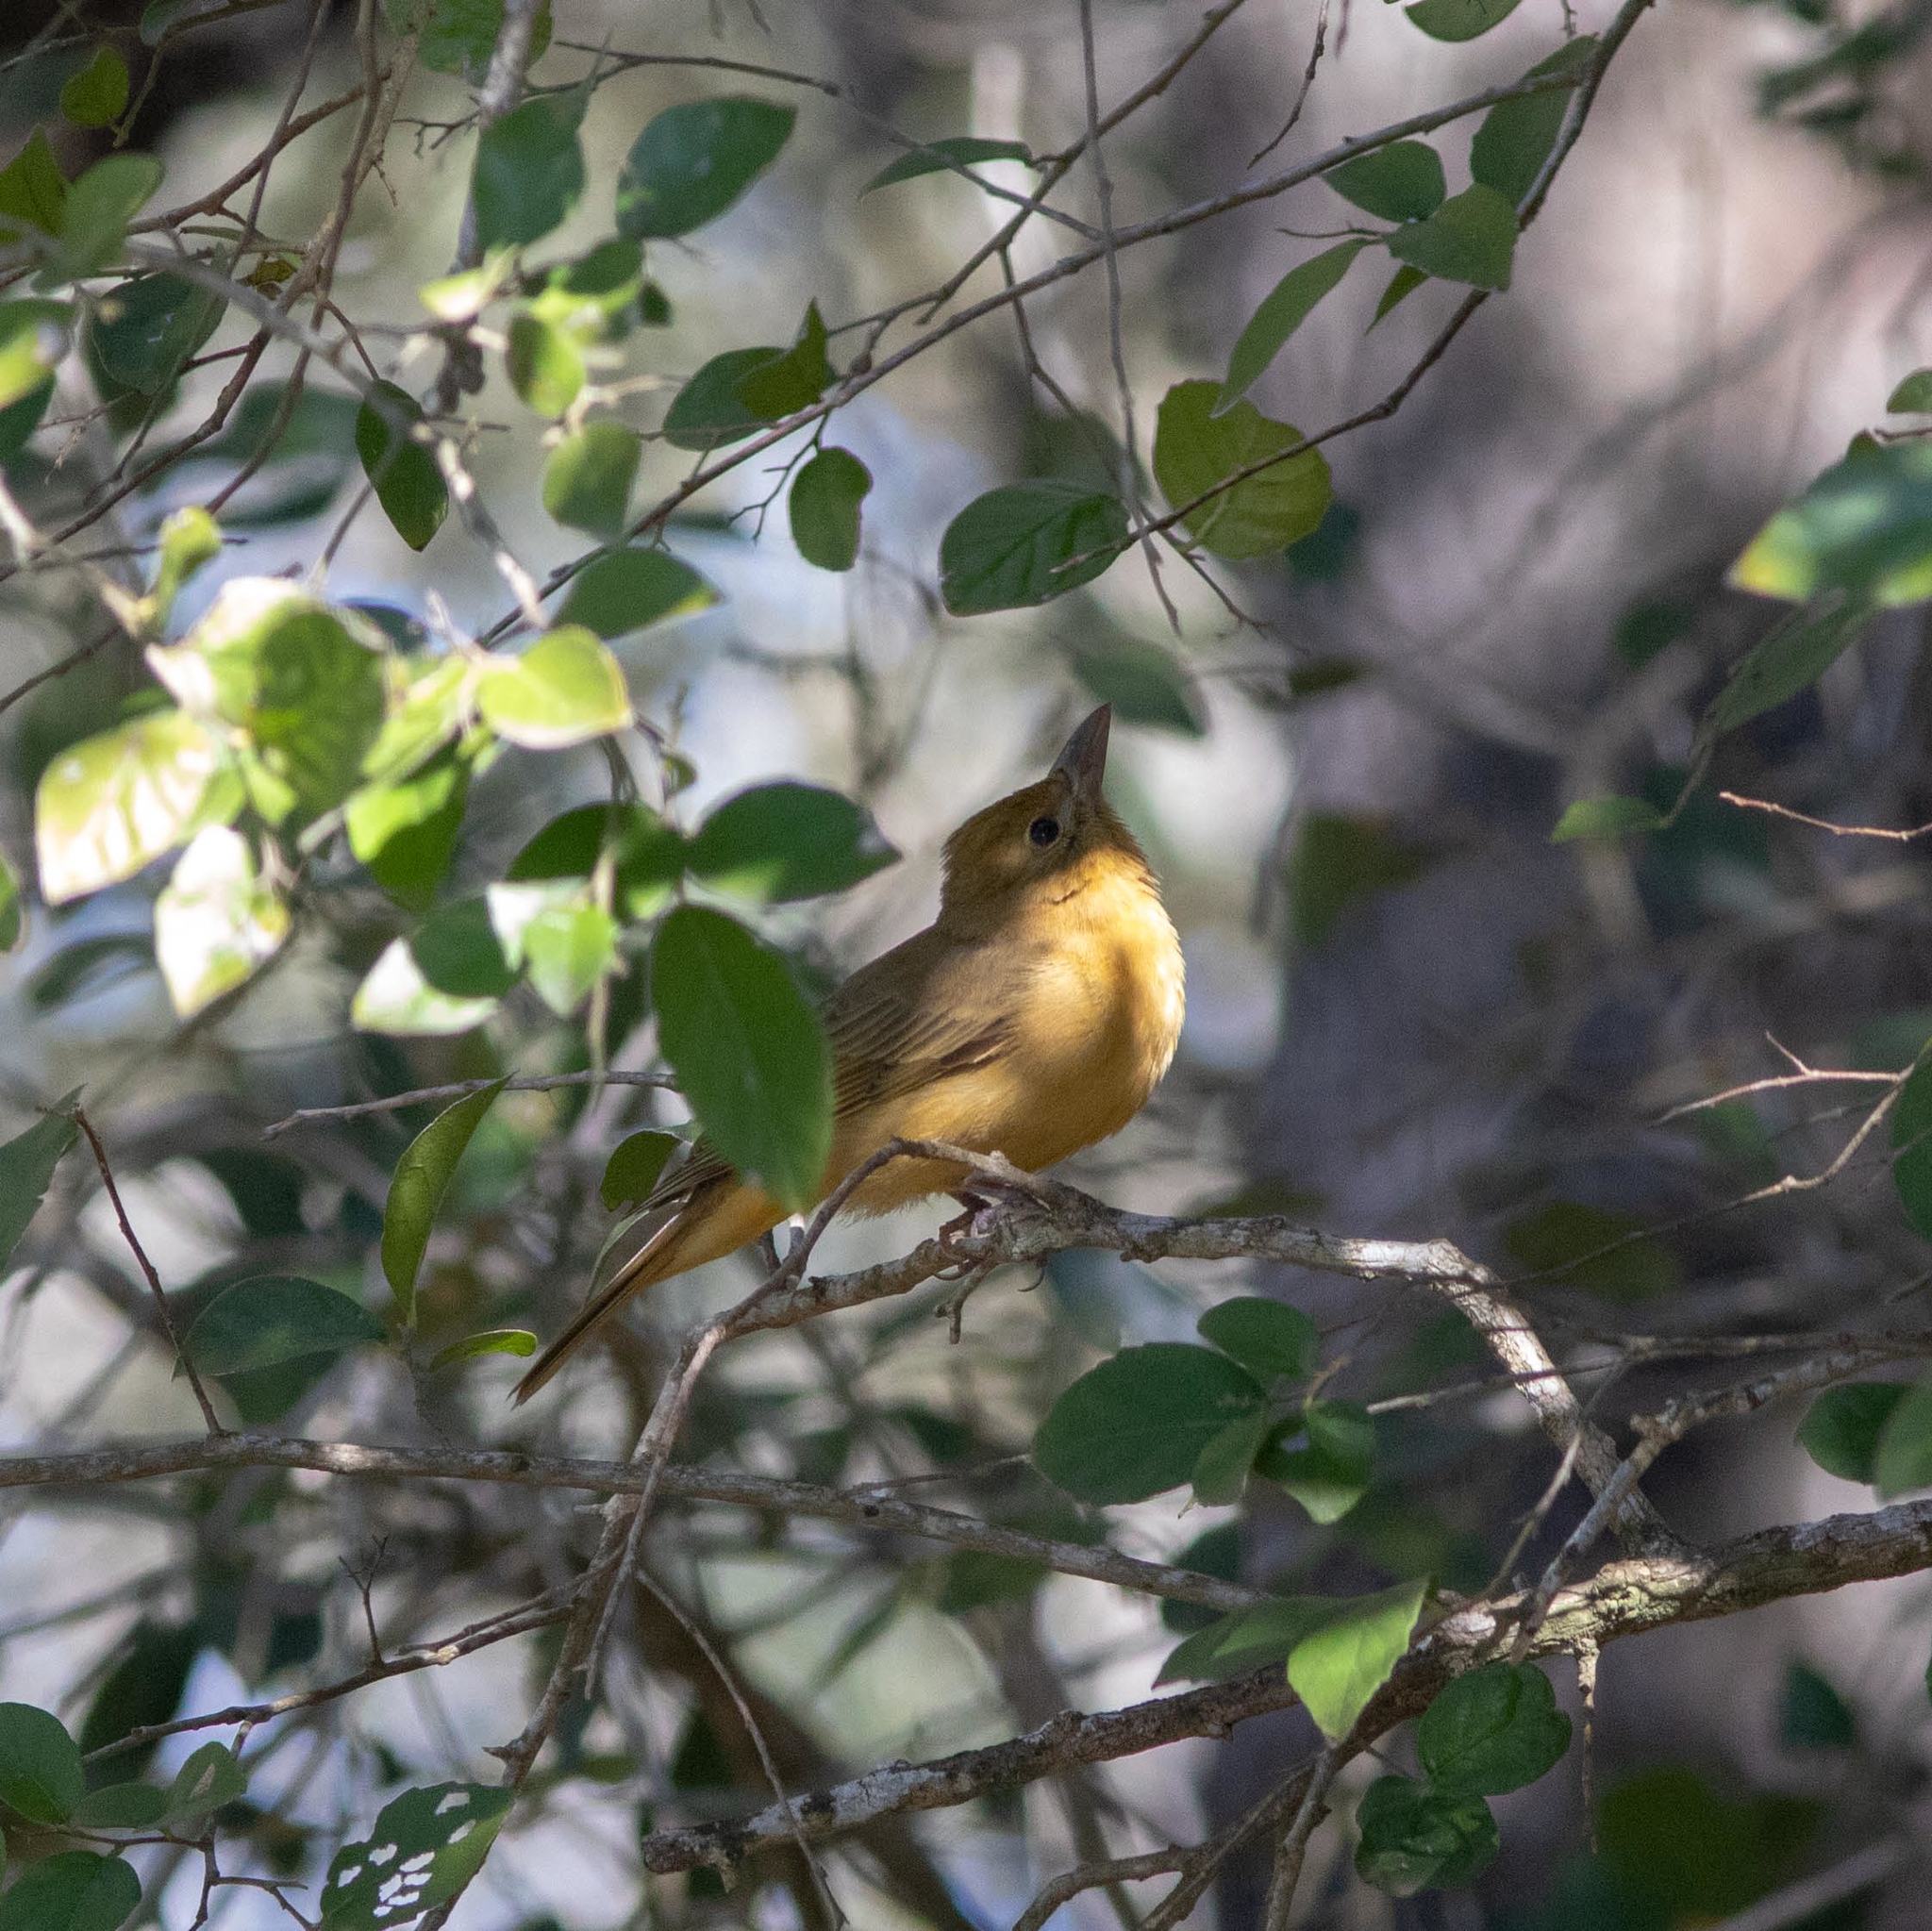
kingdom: Animalia
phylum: Chordata
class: Aves
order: Passeriformes
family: Cardinalidae
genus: Piranga
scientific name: Piranga rubra
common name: Summer tanager
